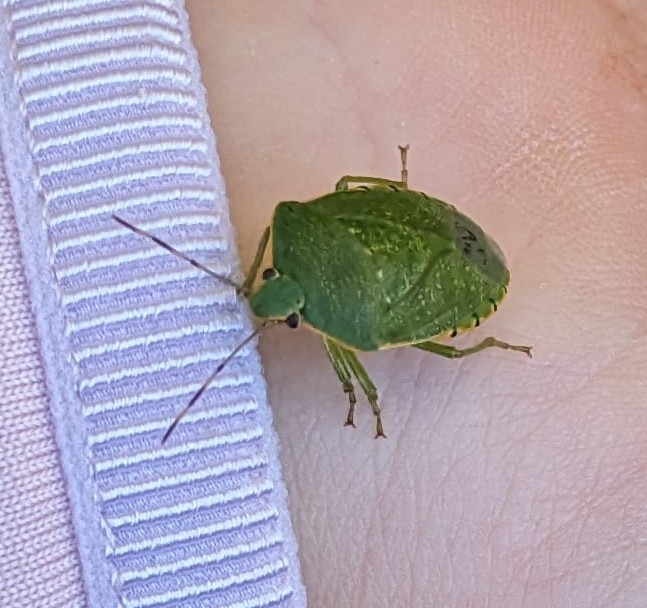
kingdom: Animalia
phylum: Arthropoda
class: Insecta
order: Hemiptera
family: Pentatomidae
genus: Chinavia
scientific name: Chinavia hilaris
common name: Green stink bug
